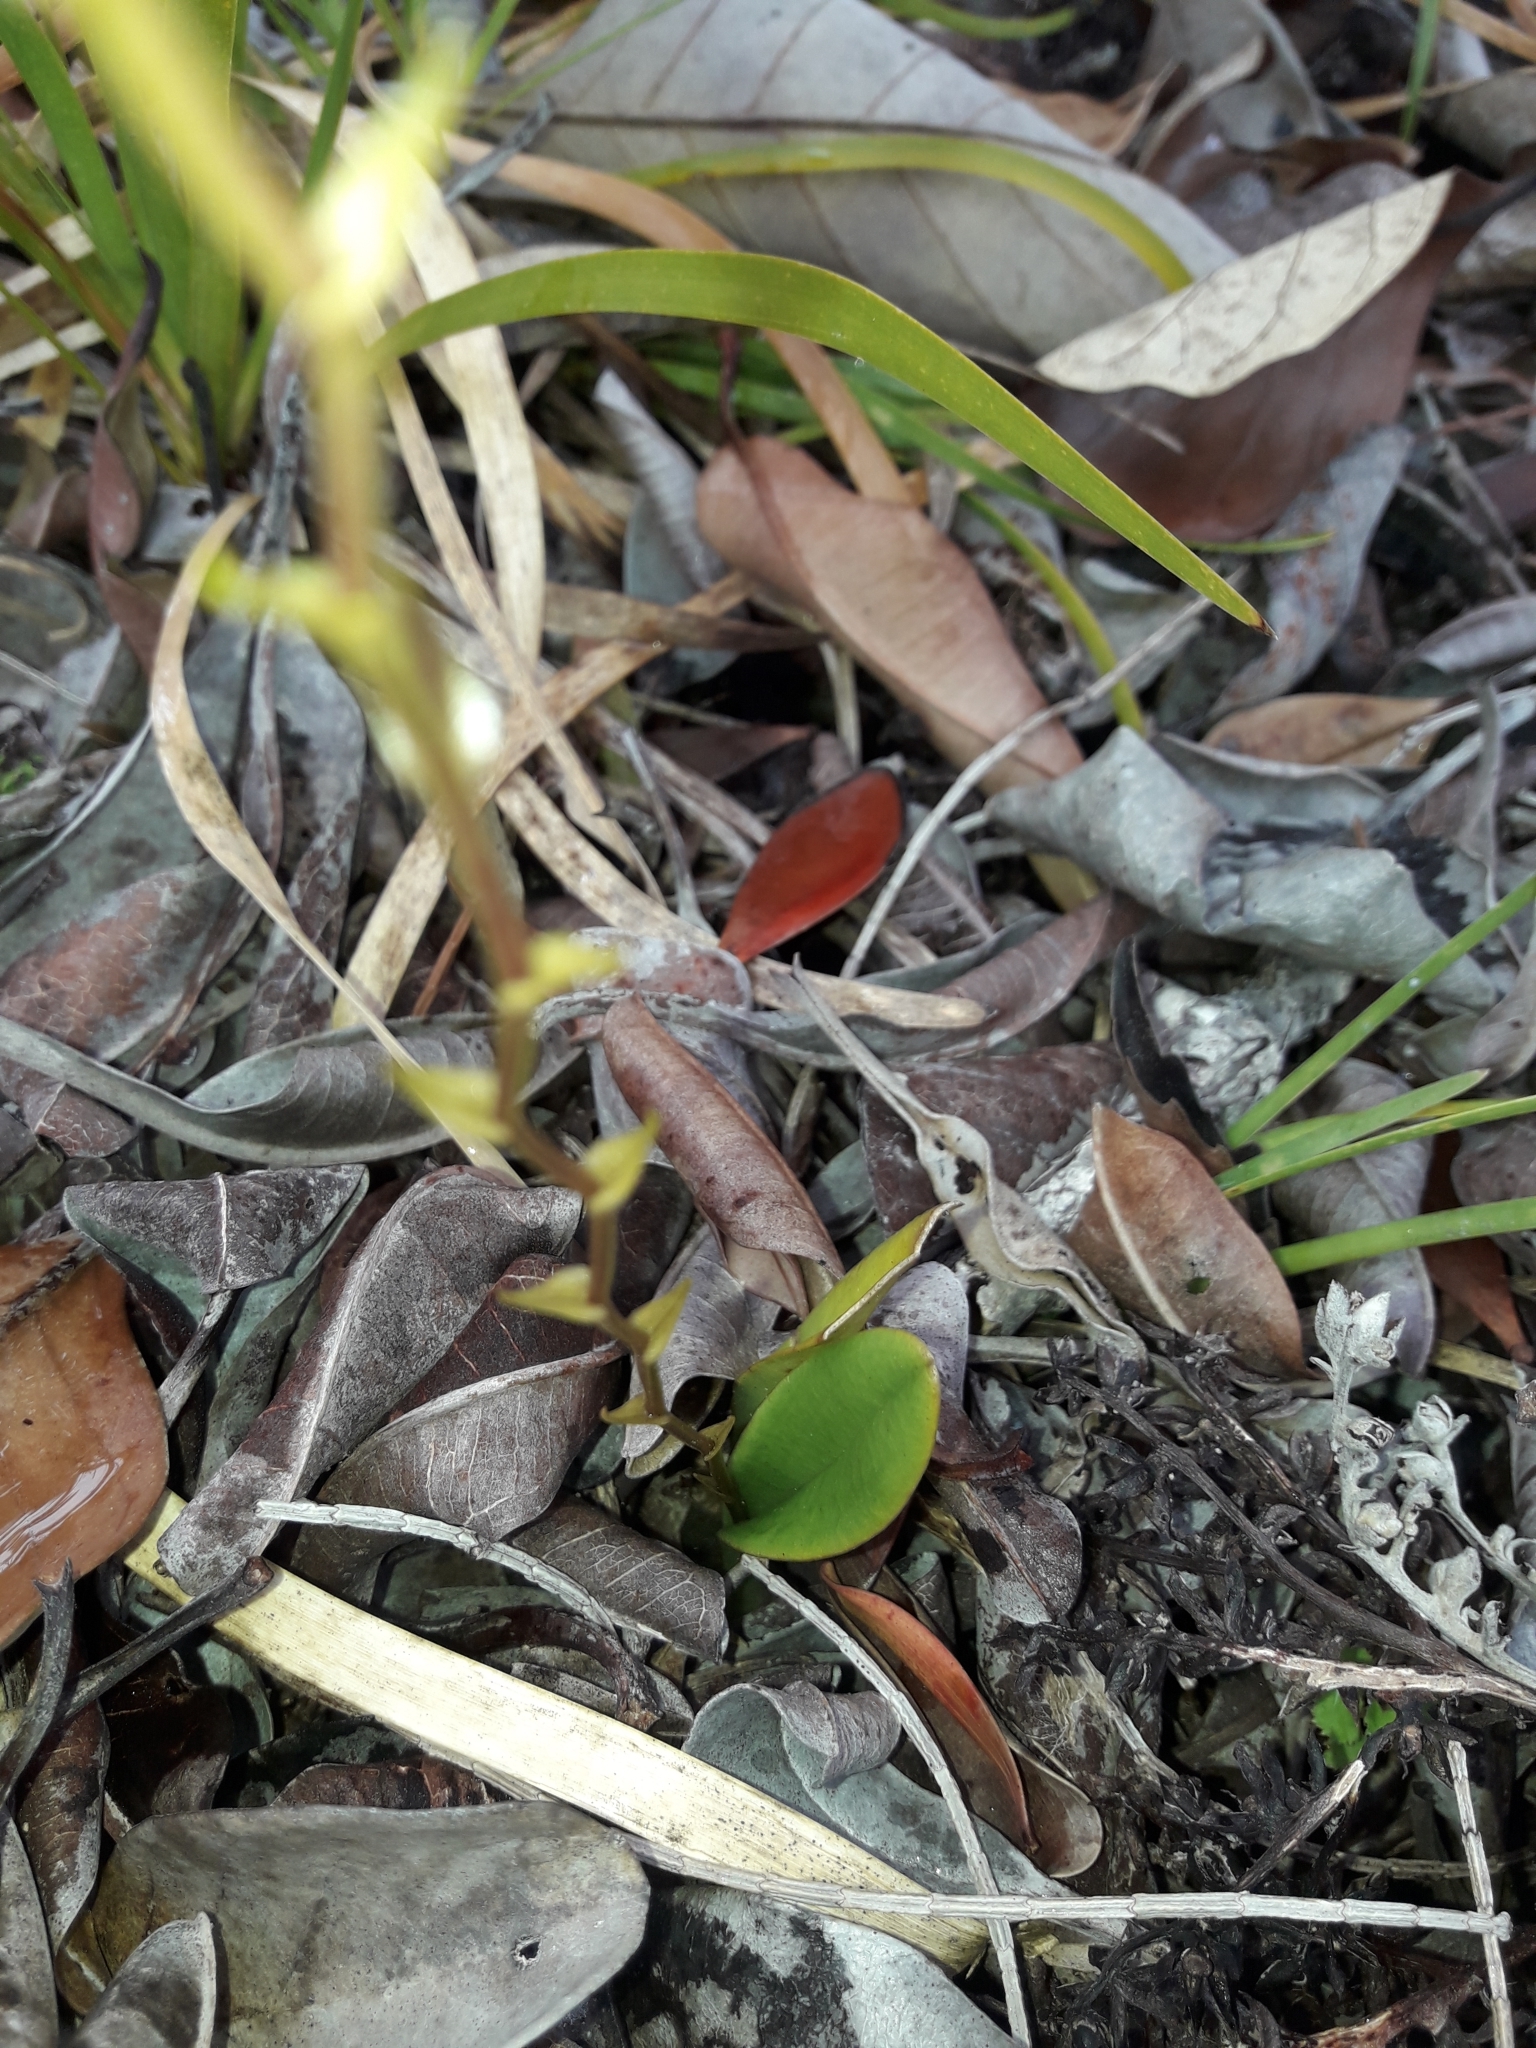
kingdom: Plantae
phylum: Tracheophyta
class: Liliopsida
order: Asparagales
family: Orchidaceae
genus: Liparis
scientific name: Liparis laxa
